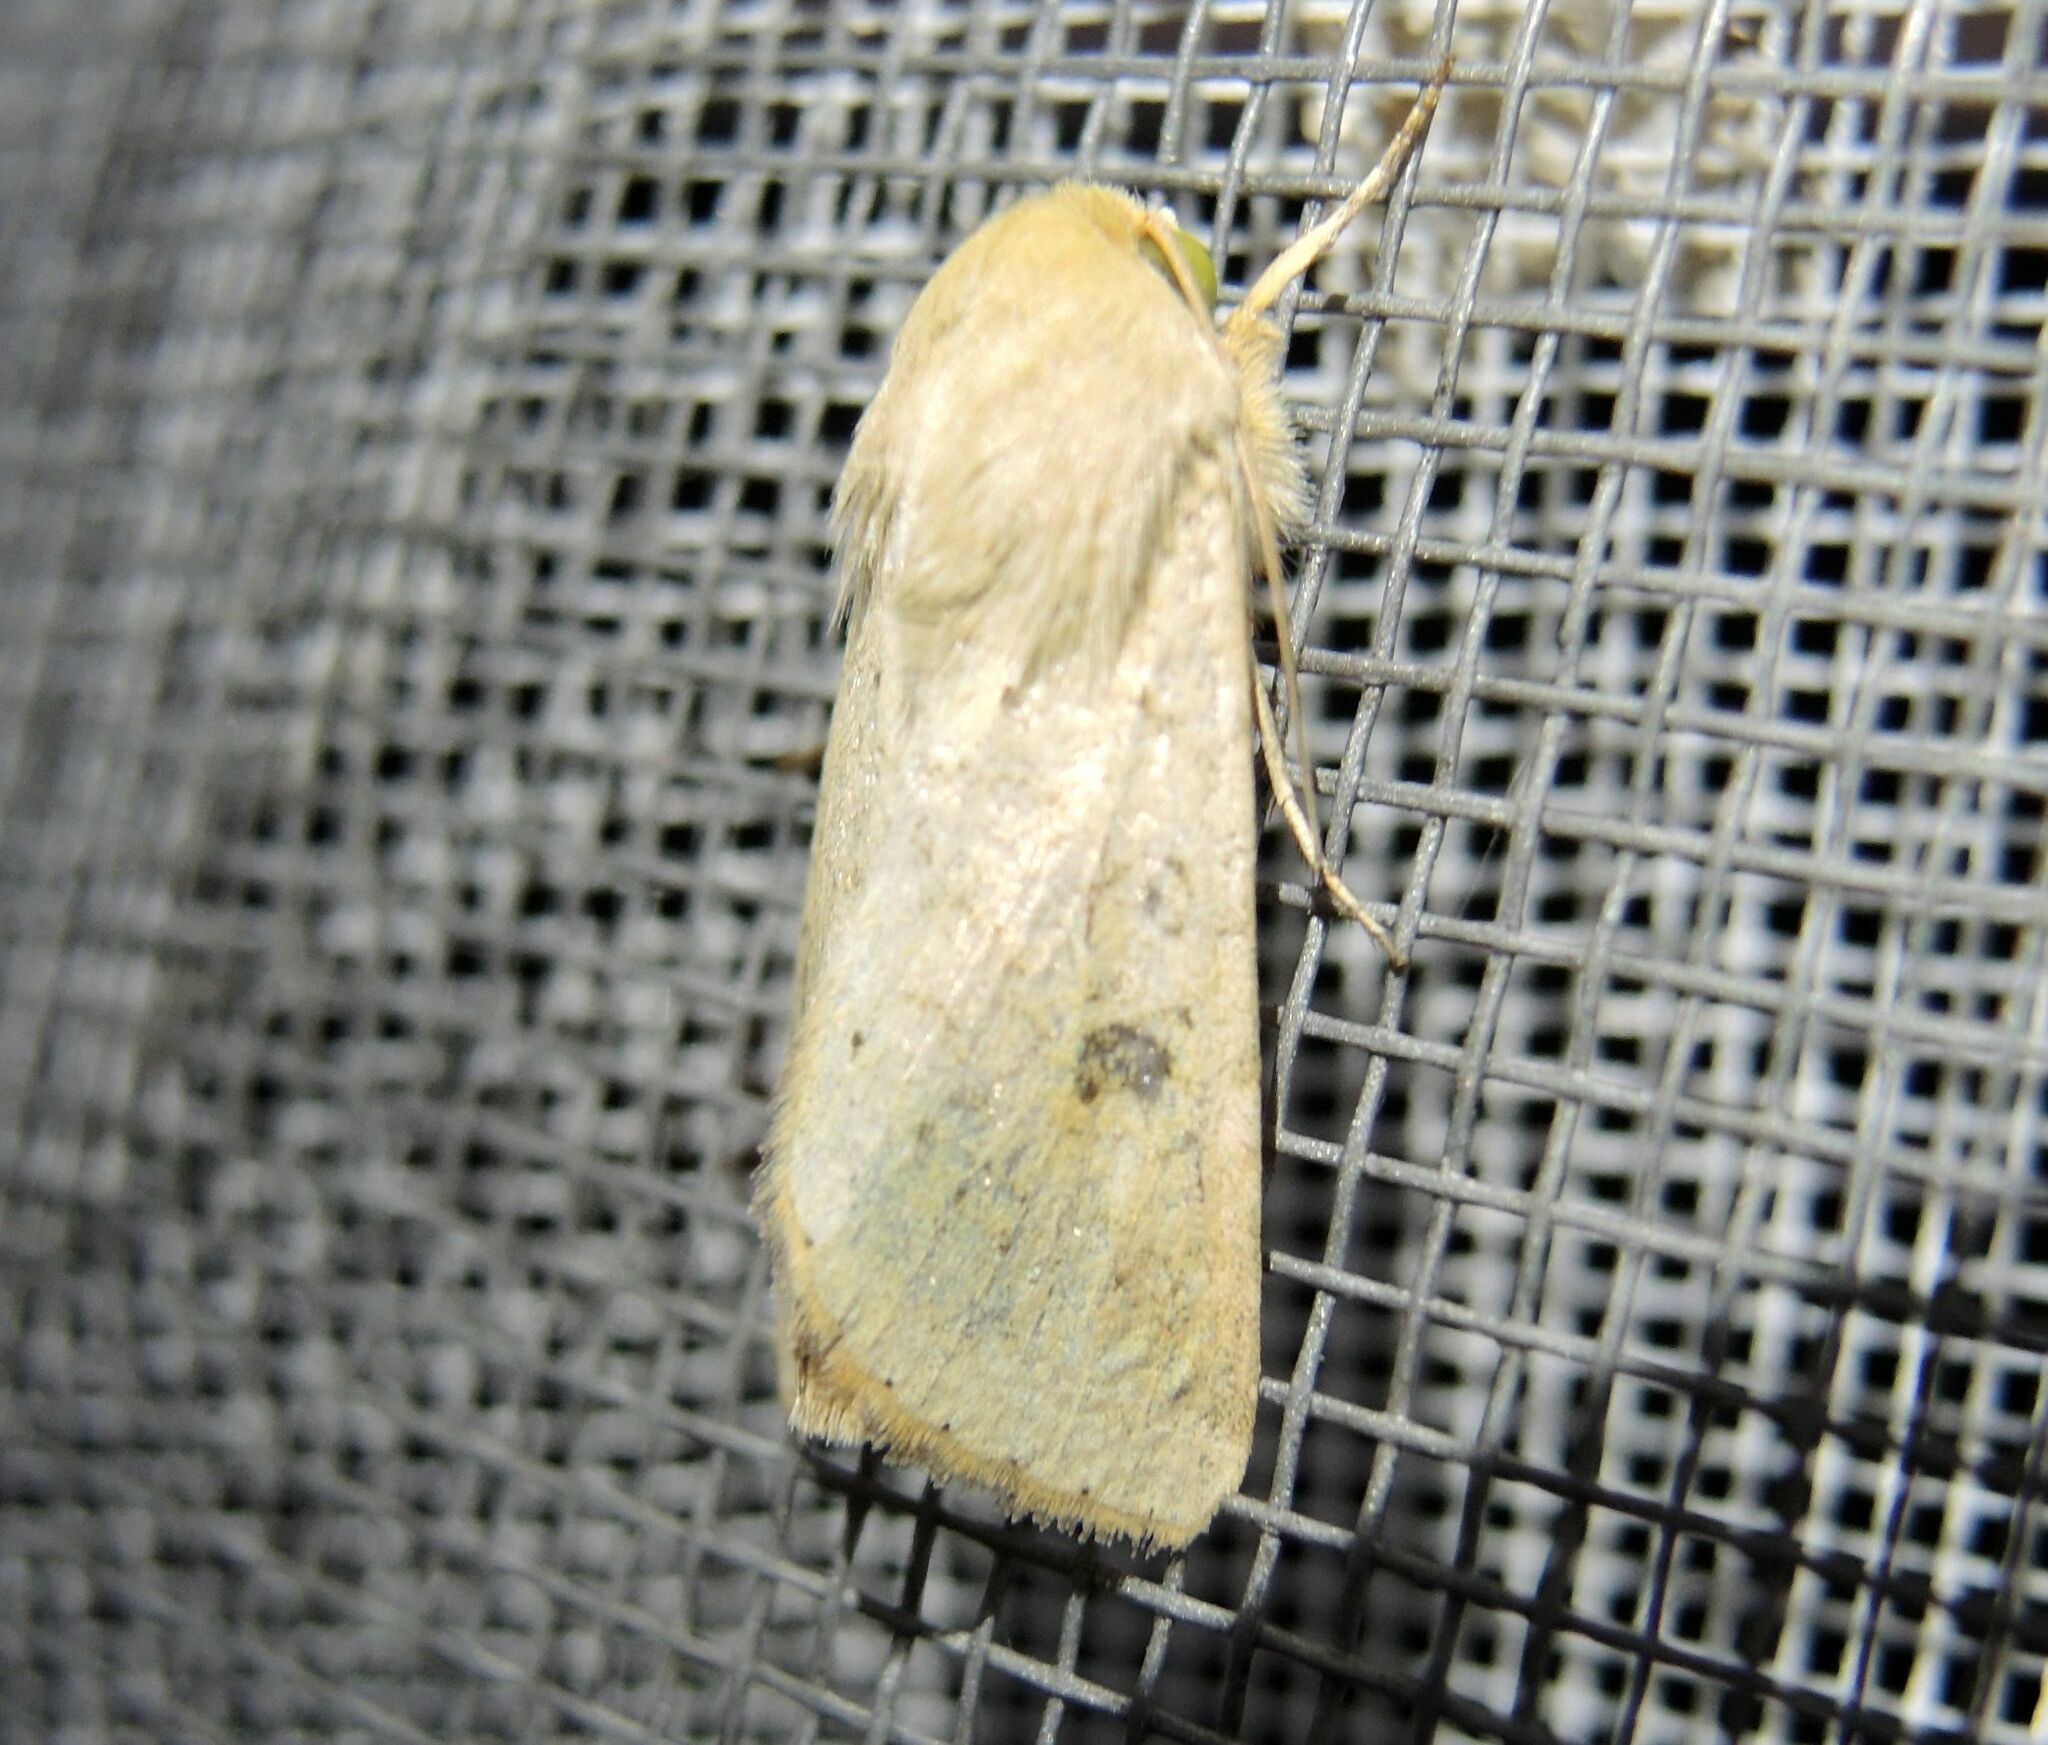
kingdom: Animalia
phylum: Arthropoda
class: Insecta
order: Lepidoptera
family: Noctuidae
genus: Helicoverpa
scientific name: Helicoverpa armigera
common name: Cotton bollworm
